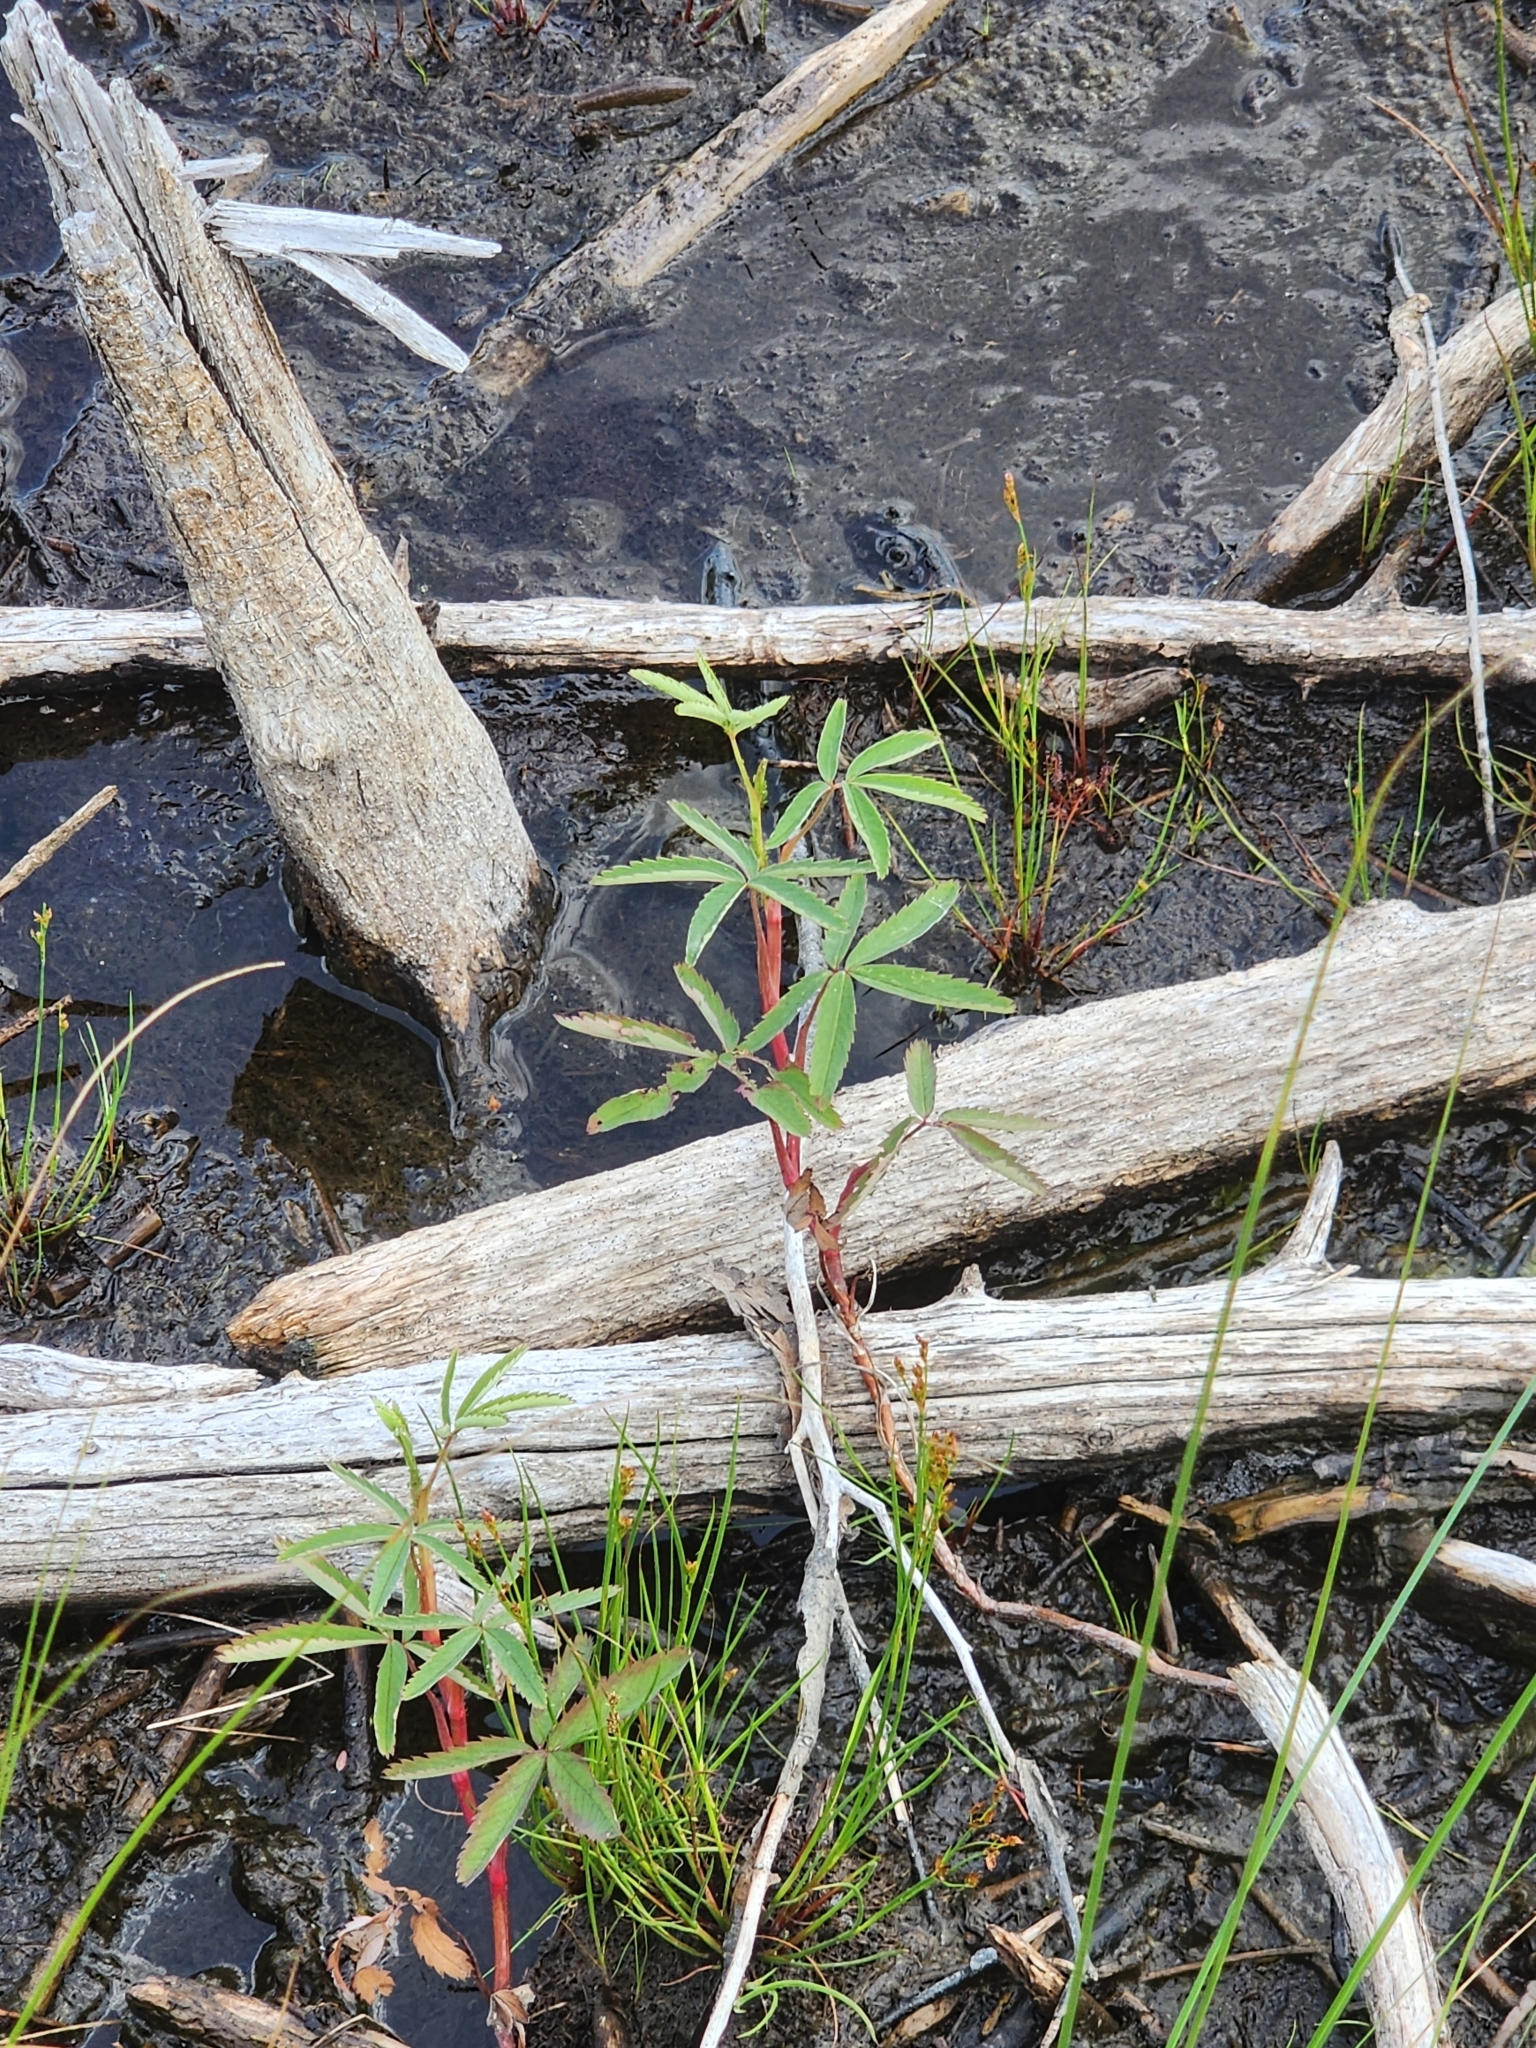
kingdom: Plantae
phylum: Tracheophyta
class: Magnoliopsida
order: Rosales
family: Rosaceae
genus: Comarum
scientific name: Comarum palustre
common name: Marsh cinquefoil
